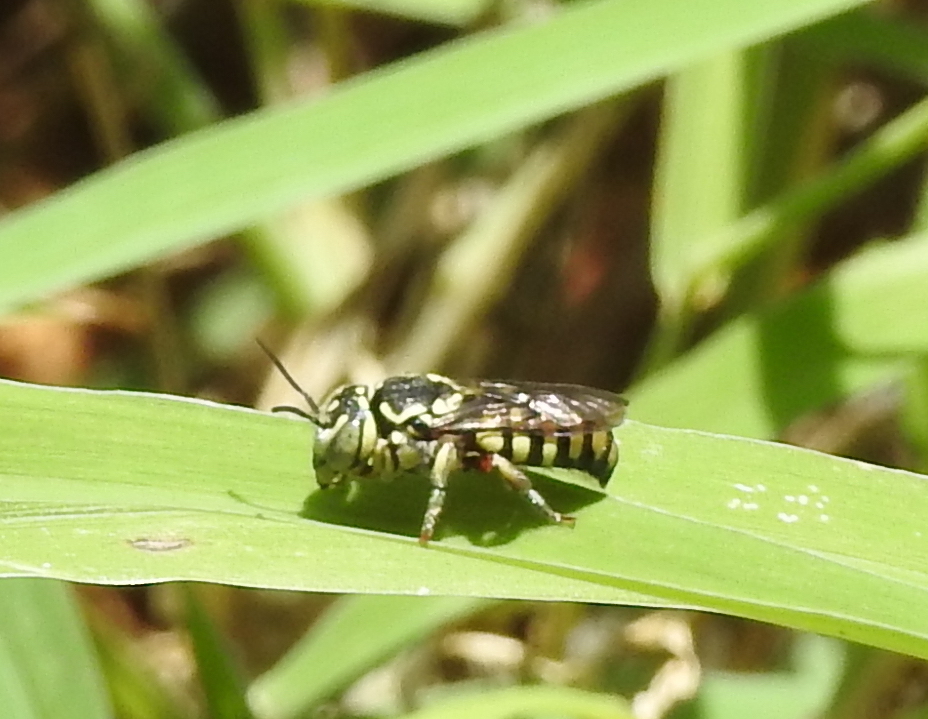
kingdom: Animalia
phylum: Arthropoda
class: Insecta
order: Hymenoptera
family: Megachilidae
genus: Eoanthidium
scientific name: Eoanthidium salemense
